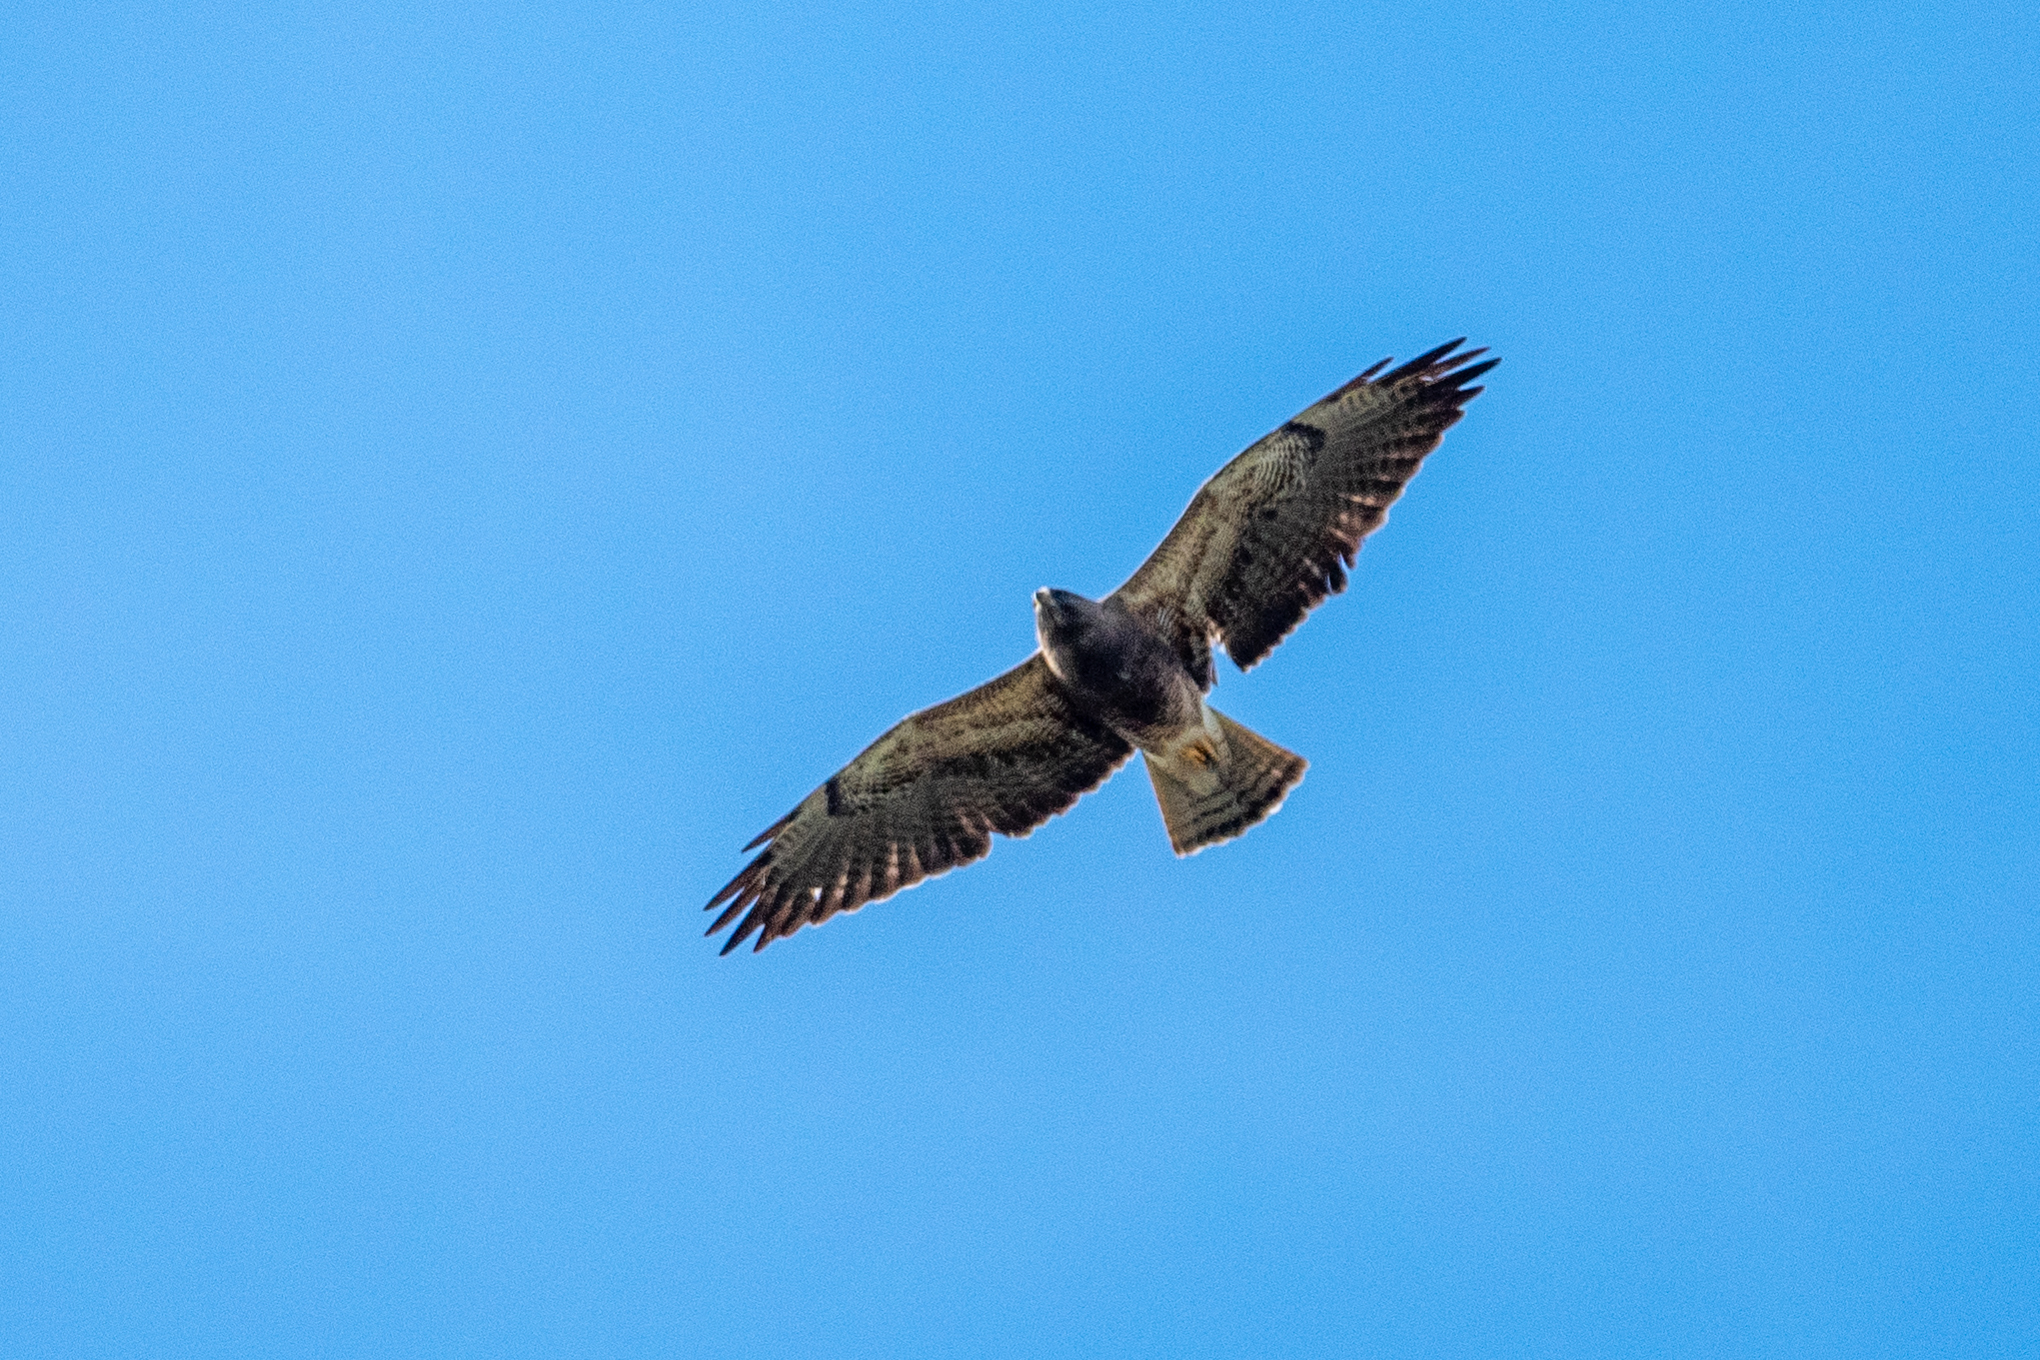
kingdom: Animalia
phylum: Chordata
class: Aves
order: Accipitriformes
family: Accipitridae
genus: Buteo
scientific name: Buteo swainsoni
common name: Swainson's hawk
